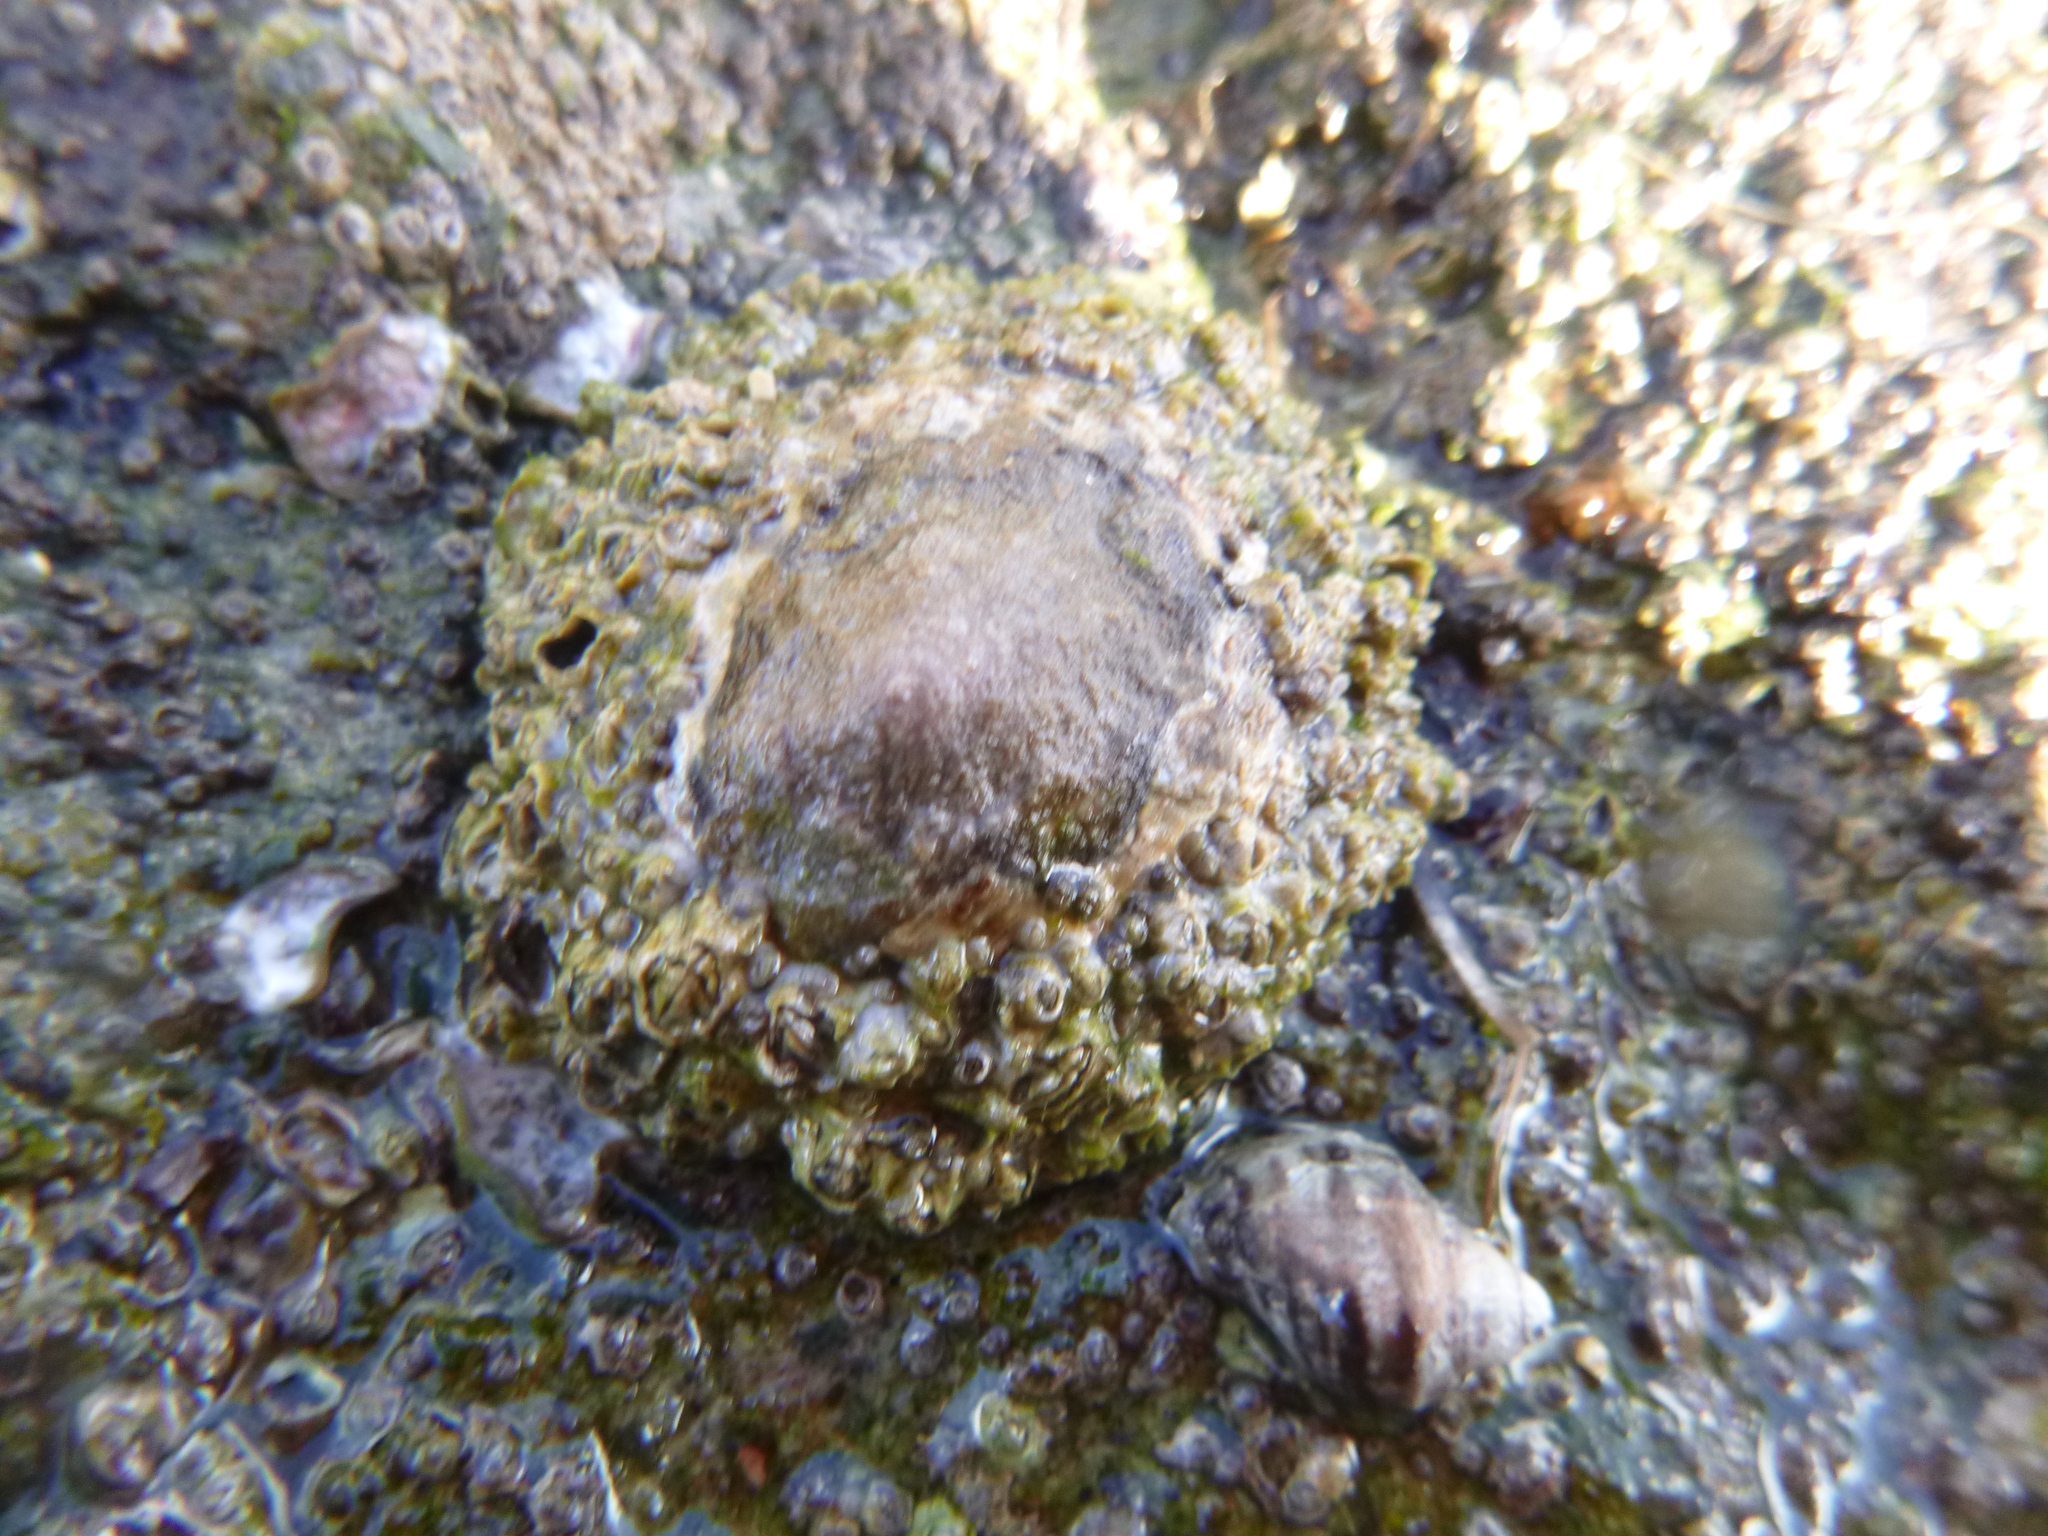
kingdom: Animalia
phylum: Mollusca
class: Gastropoda
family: Nacellidae
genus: Cellana
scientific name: Cellana ornata
